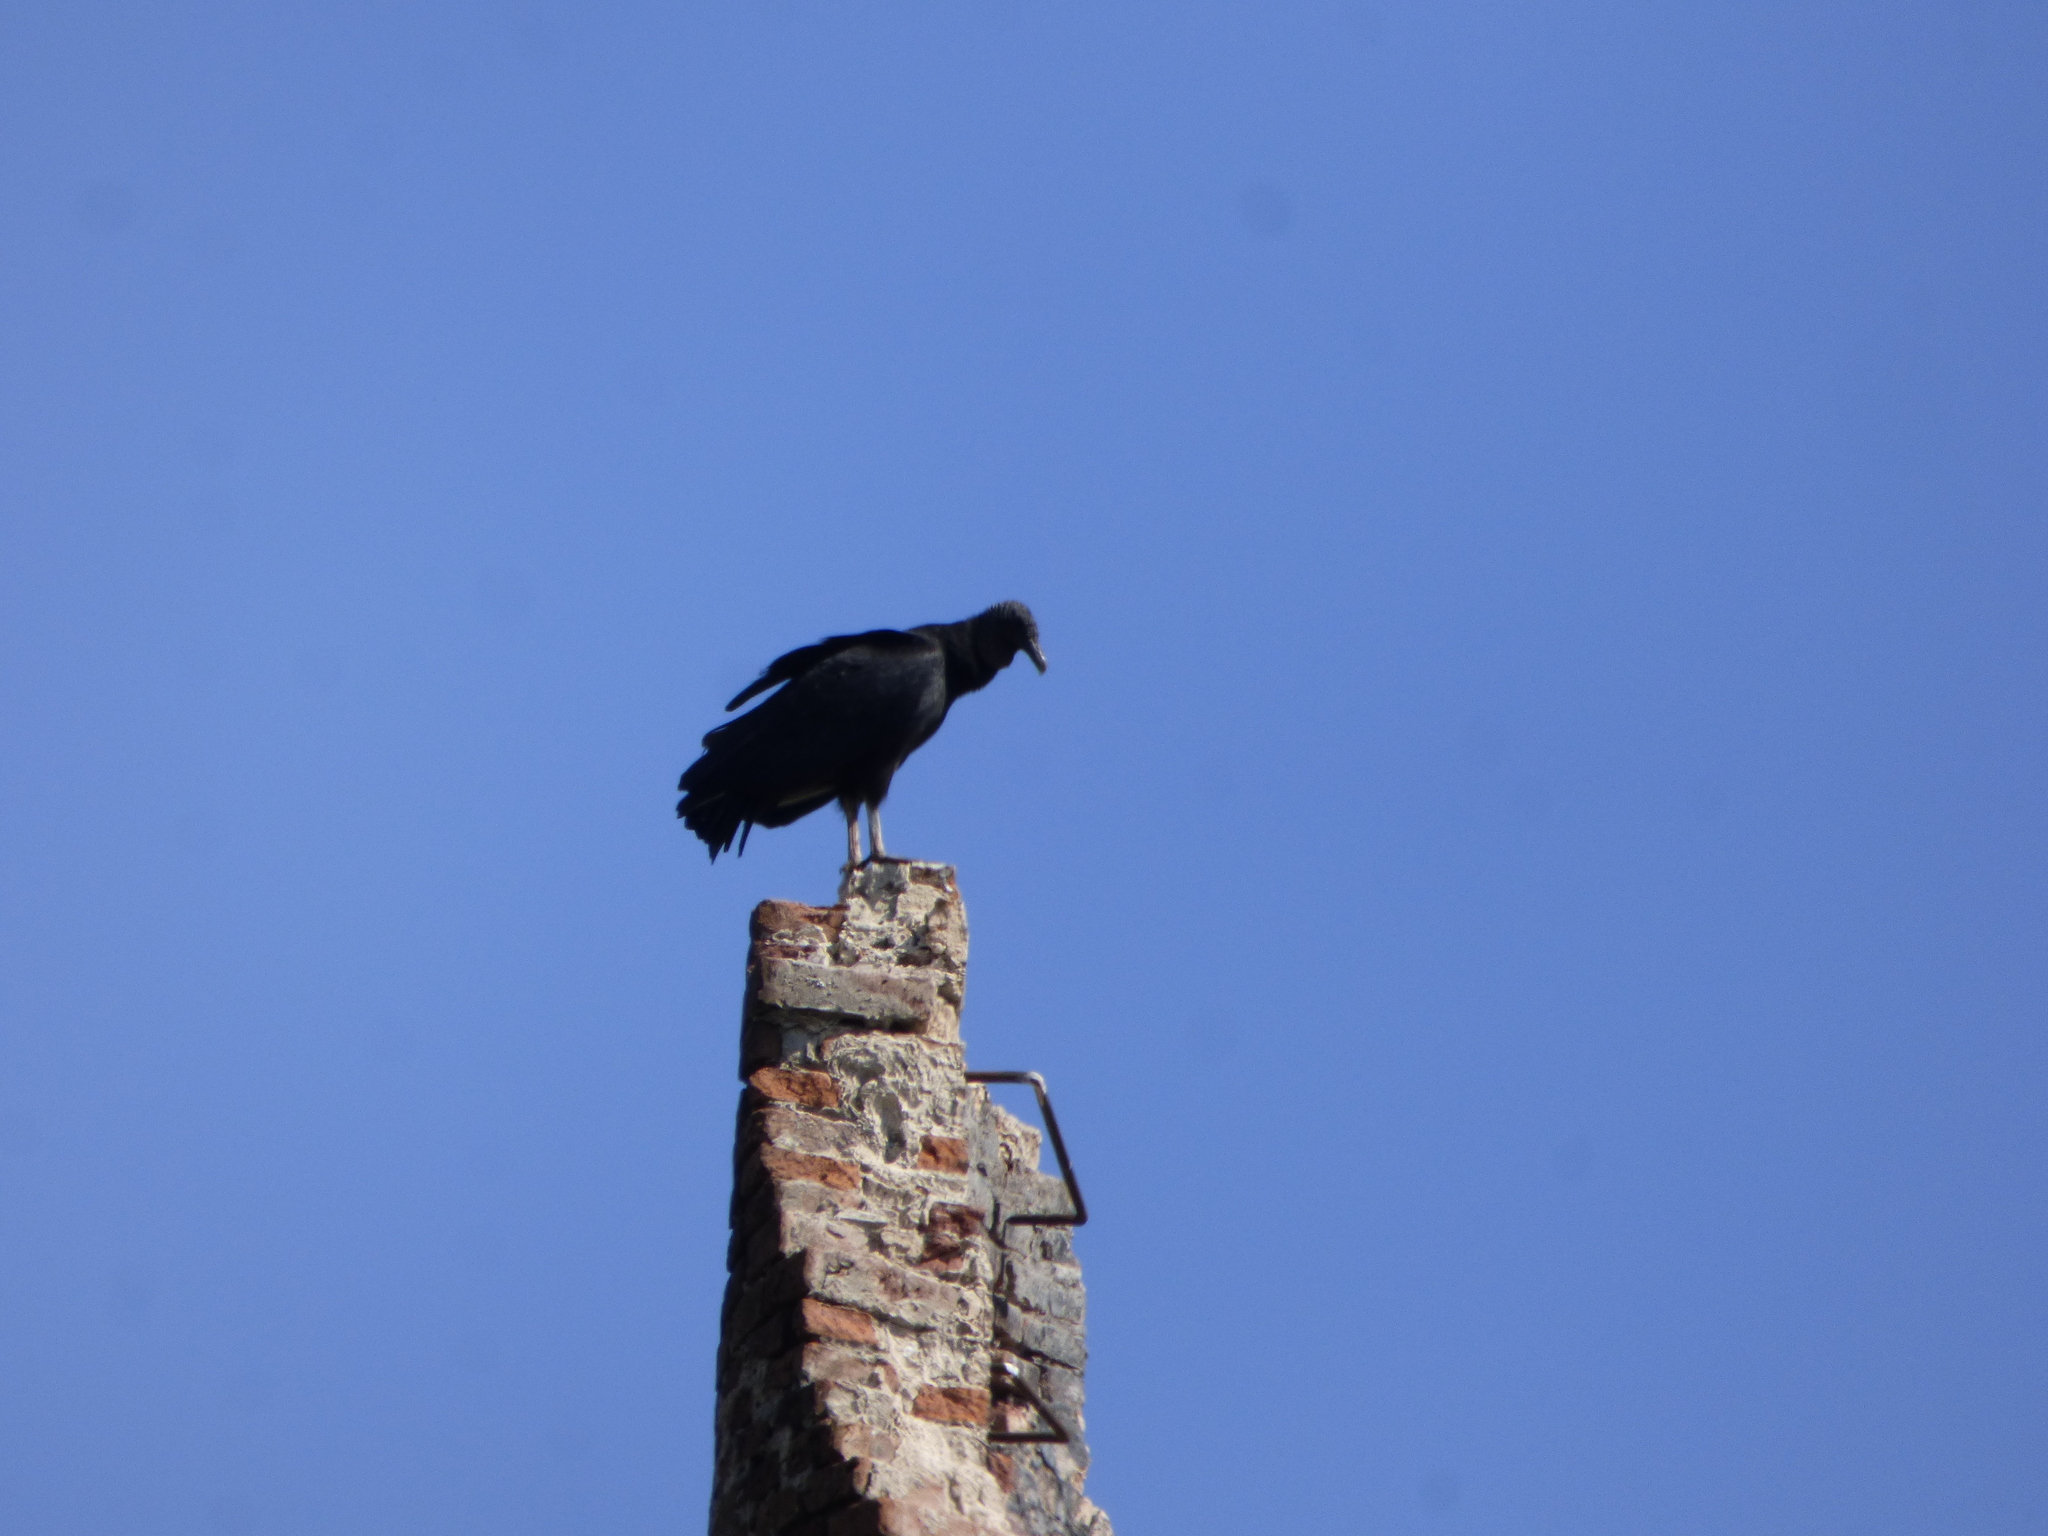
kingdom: Animalia
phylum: Chordata
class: Aves
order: Accipitriformes
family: Cathartidae
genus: Coragyps
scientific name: Coragyps atratus
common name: Black vulture
